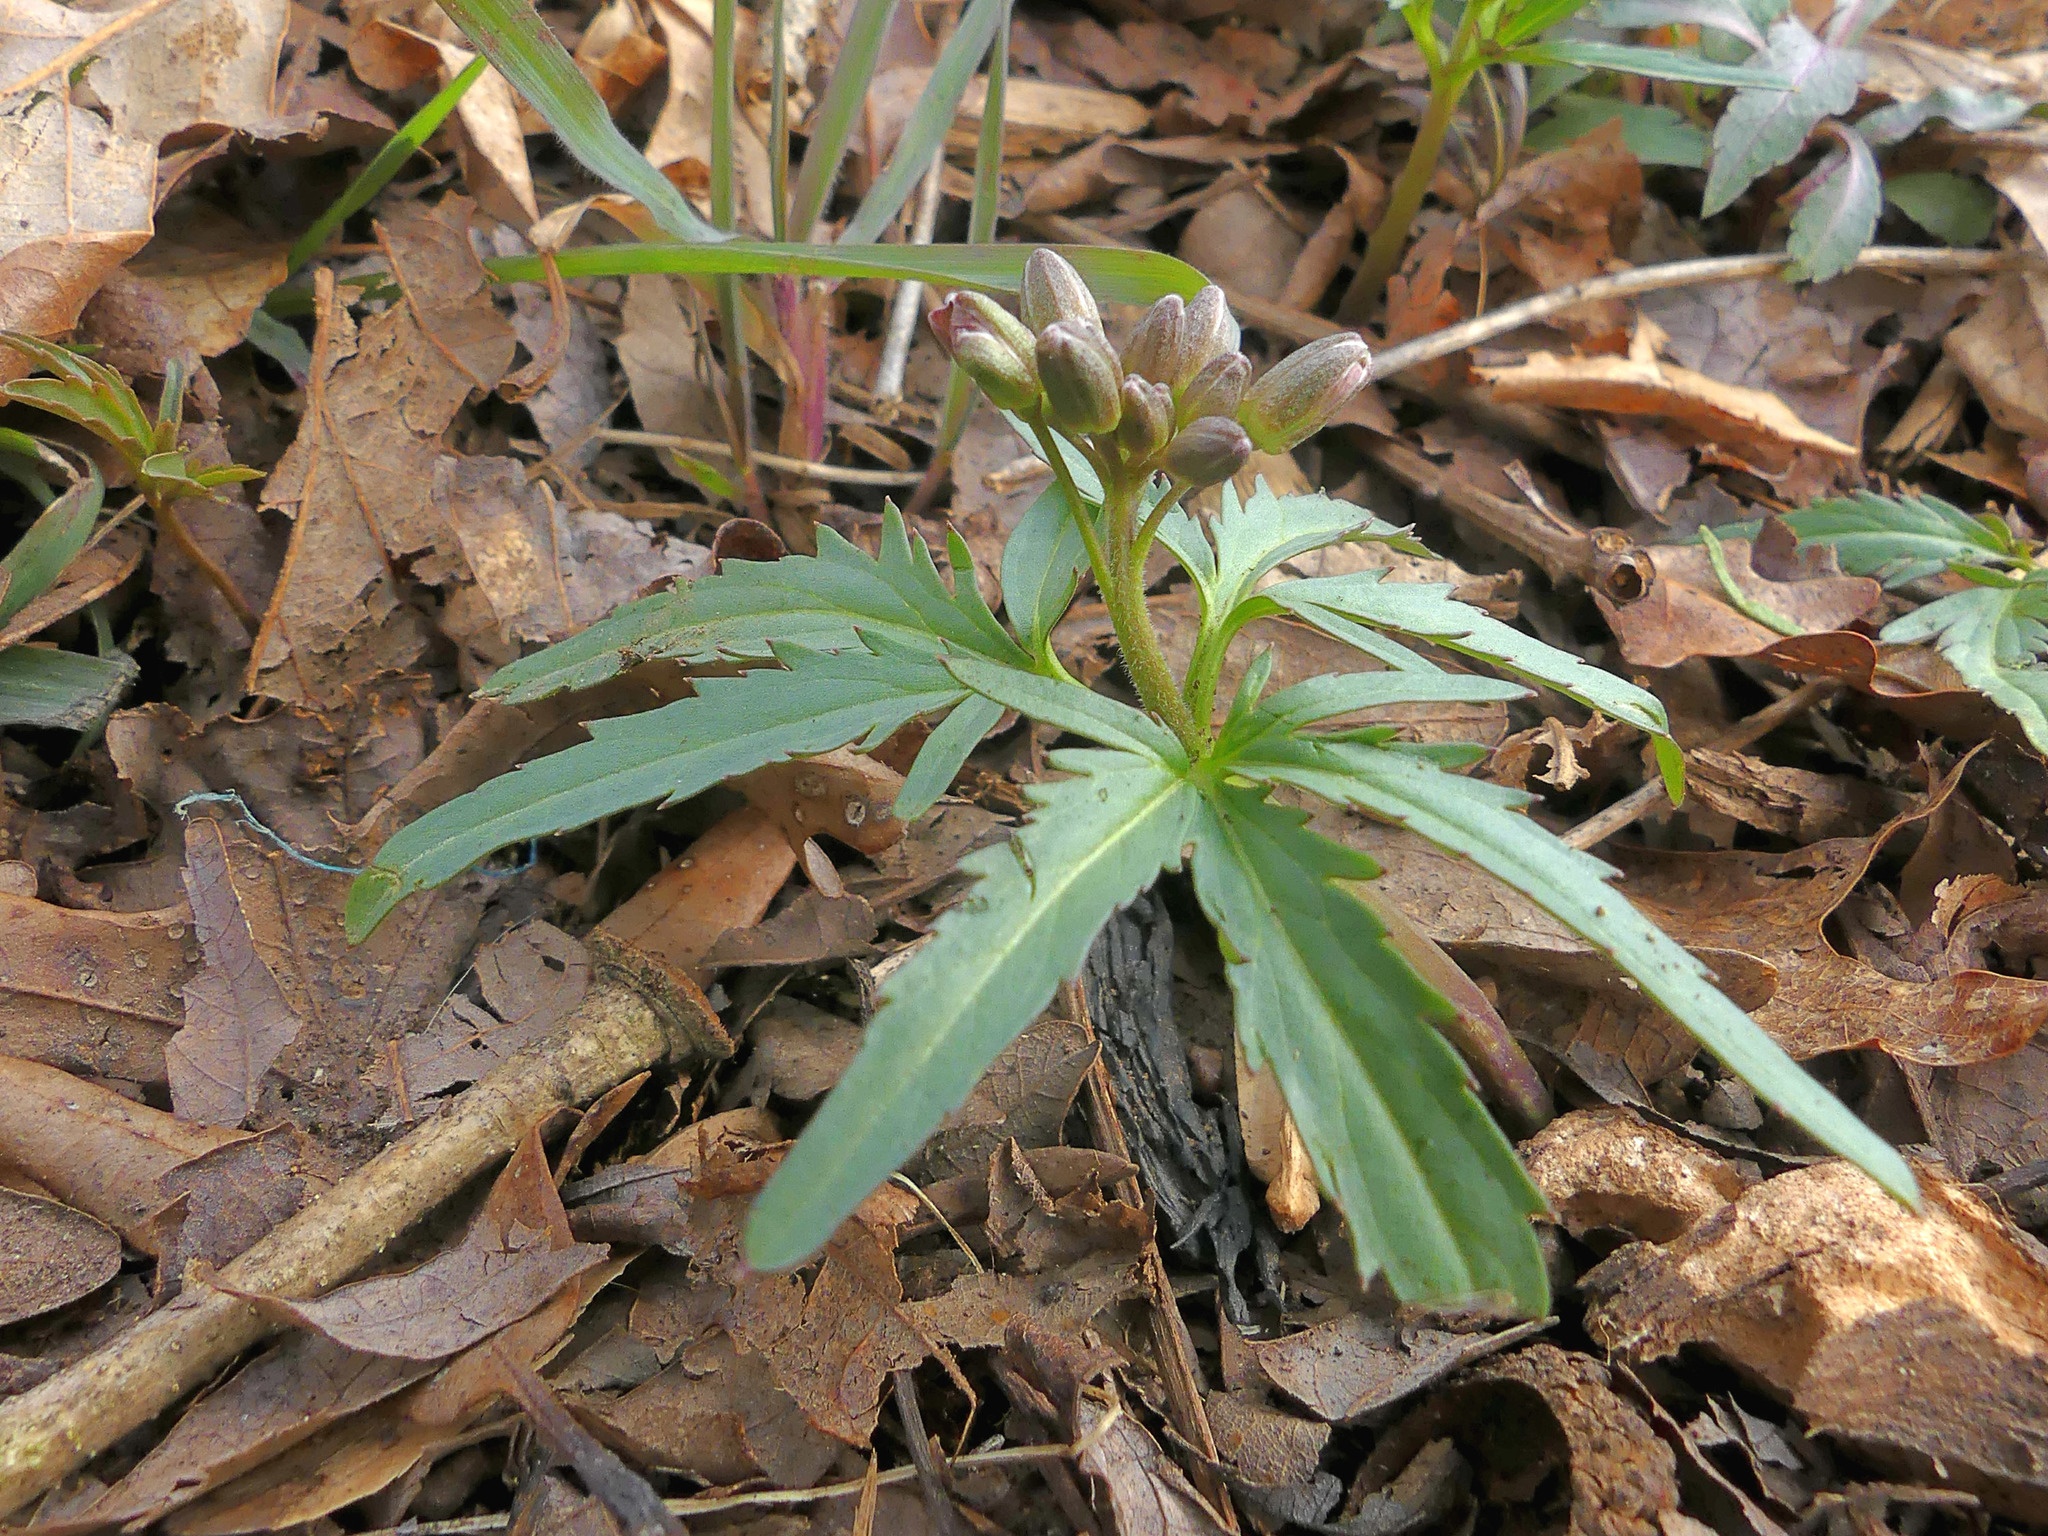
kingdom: Plantae
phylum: Tracheophyta
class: Magnoliopsida
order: Brassicales
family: Brassicaceae
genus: Cardamine
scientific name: Cardamine concatenata
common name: Cut-leaf toothcup
